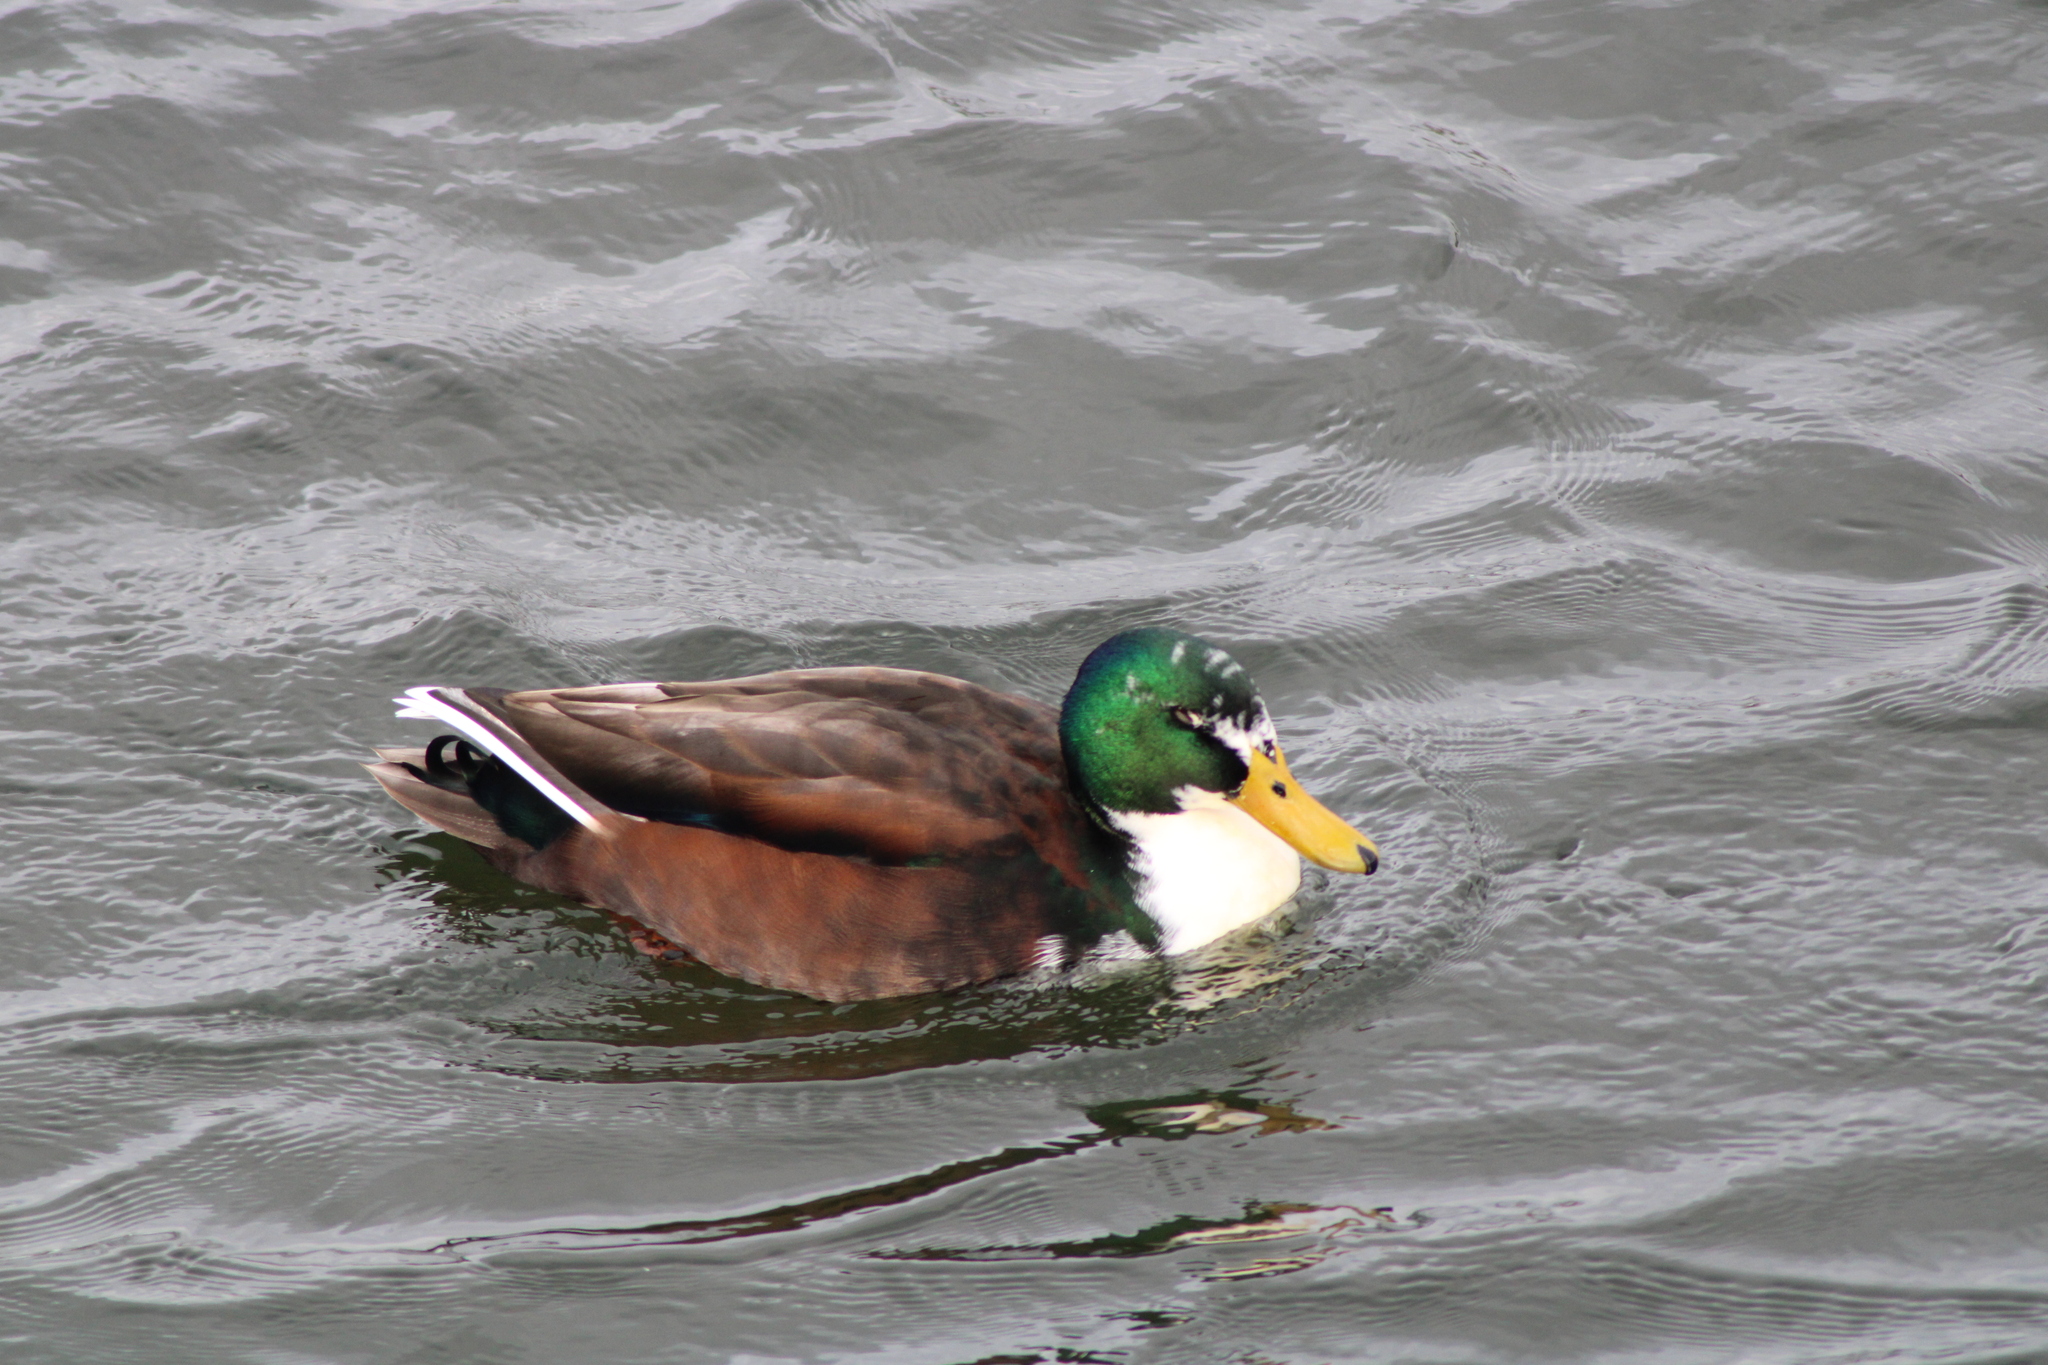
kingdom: Animalia
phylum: Chordata
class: Aves
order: Anseriformes
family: Anatidae
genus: Anas
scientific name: Anas platyrhynchos
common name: Mallard
